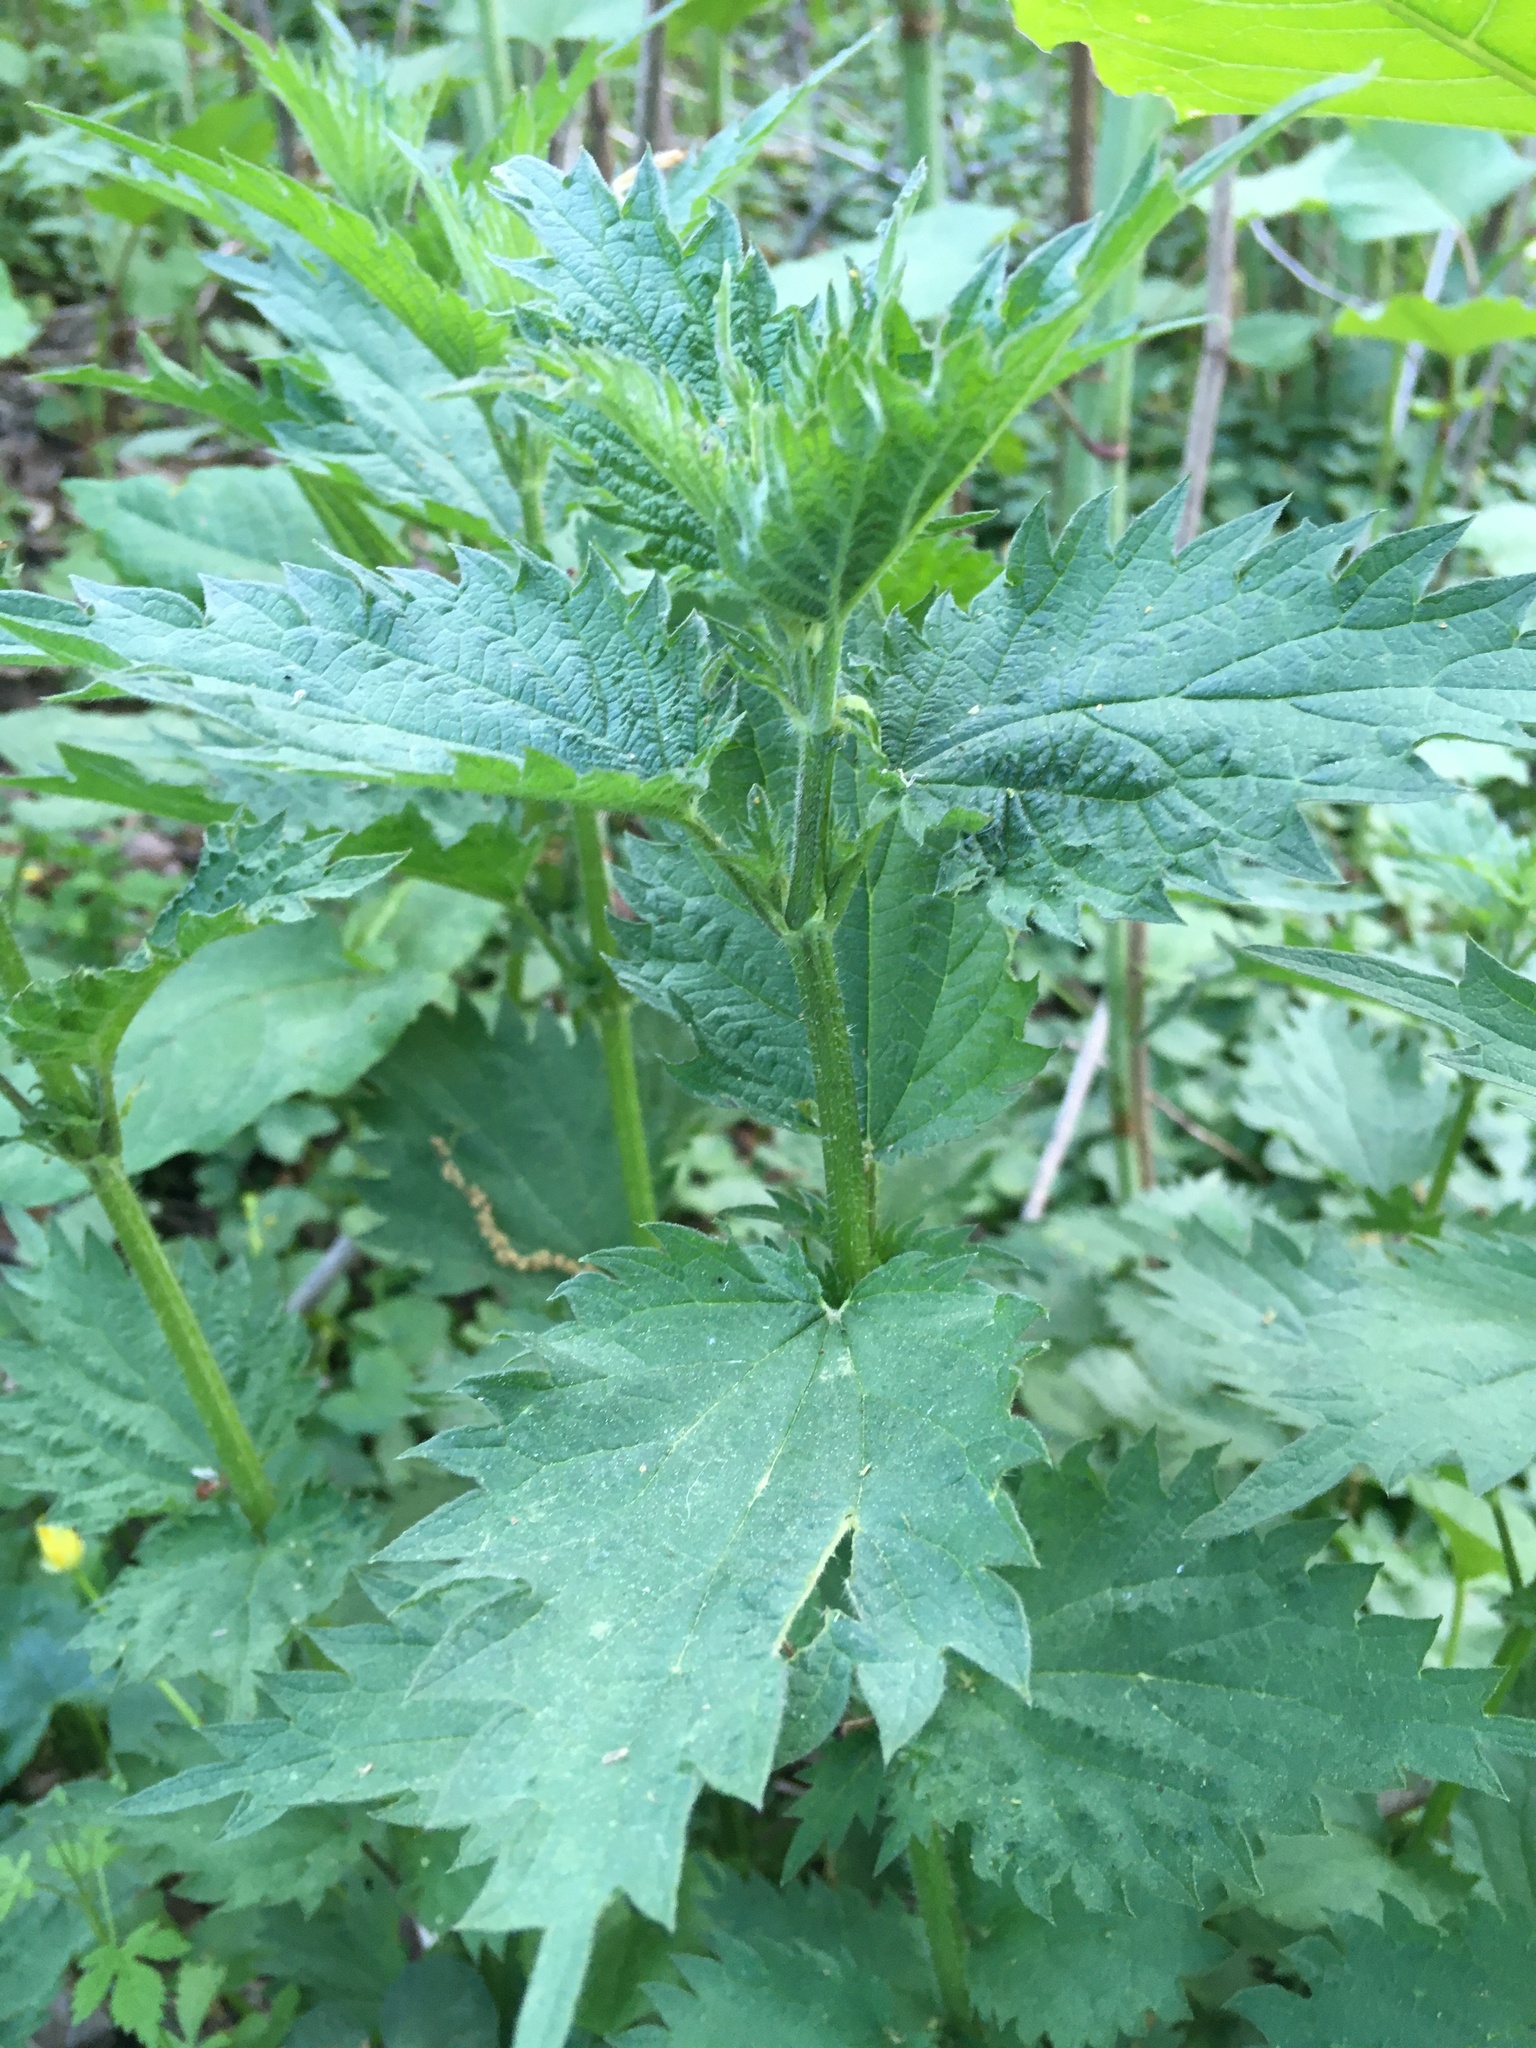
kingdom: Plantae
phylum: Tracheophyta
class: Magnoliopsida
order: Rosales
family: Urticaceae
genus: Urtica
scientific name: Urtica dioica
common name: Common nettle
